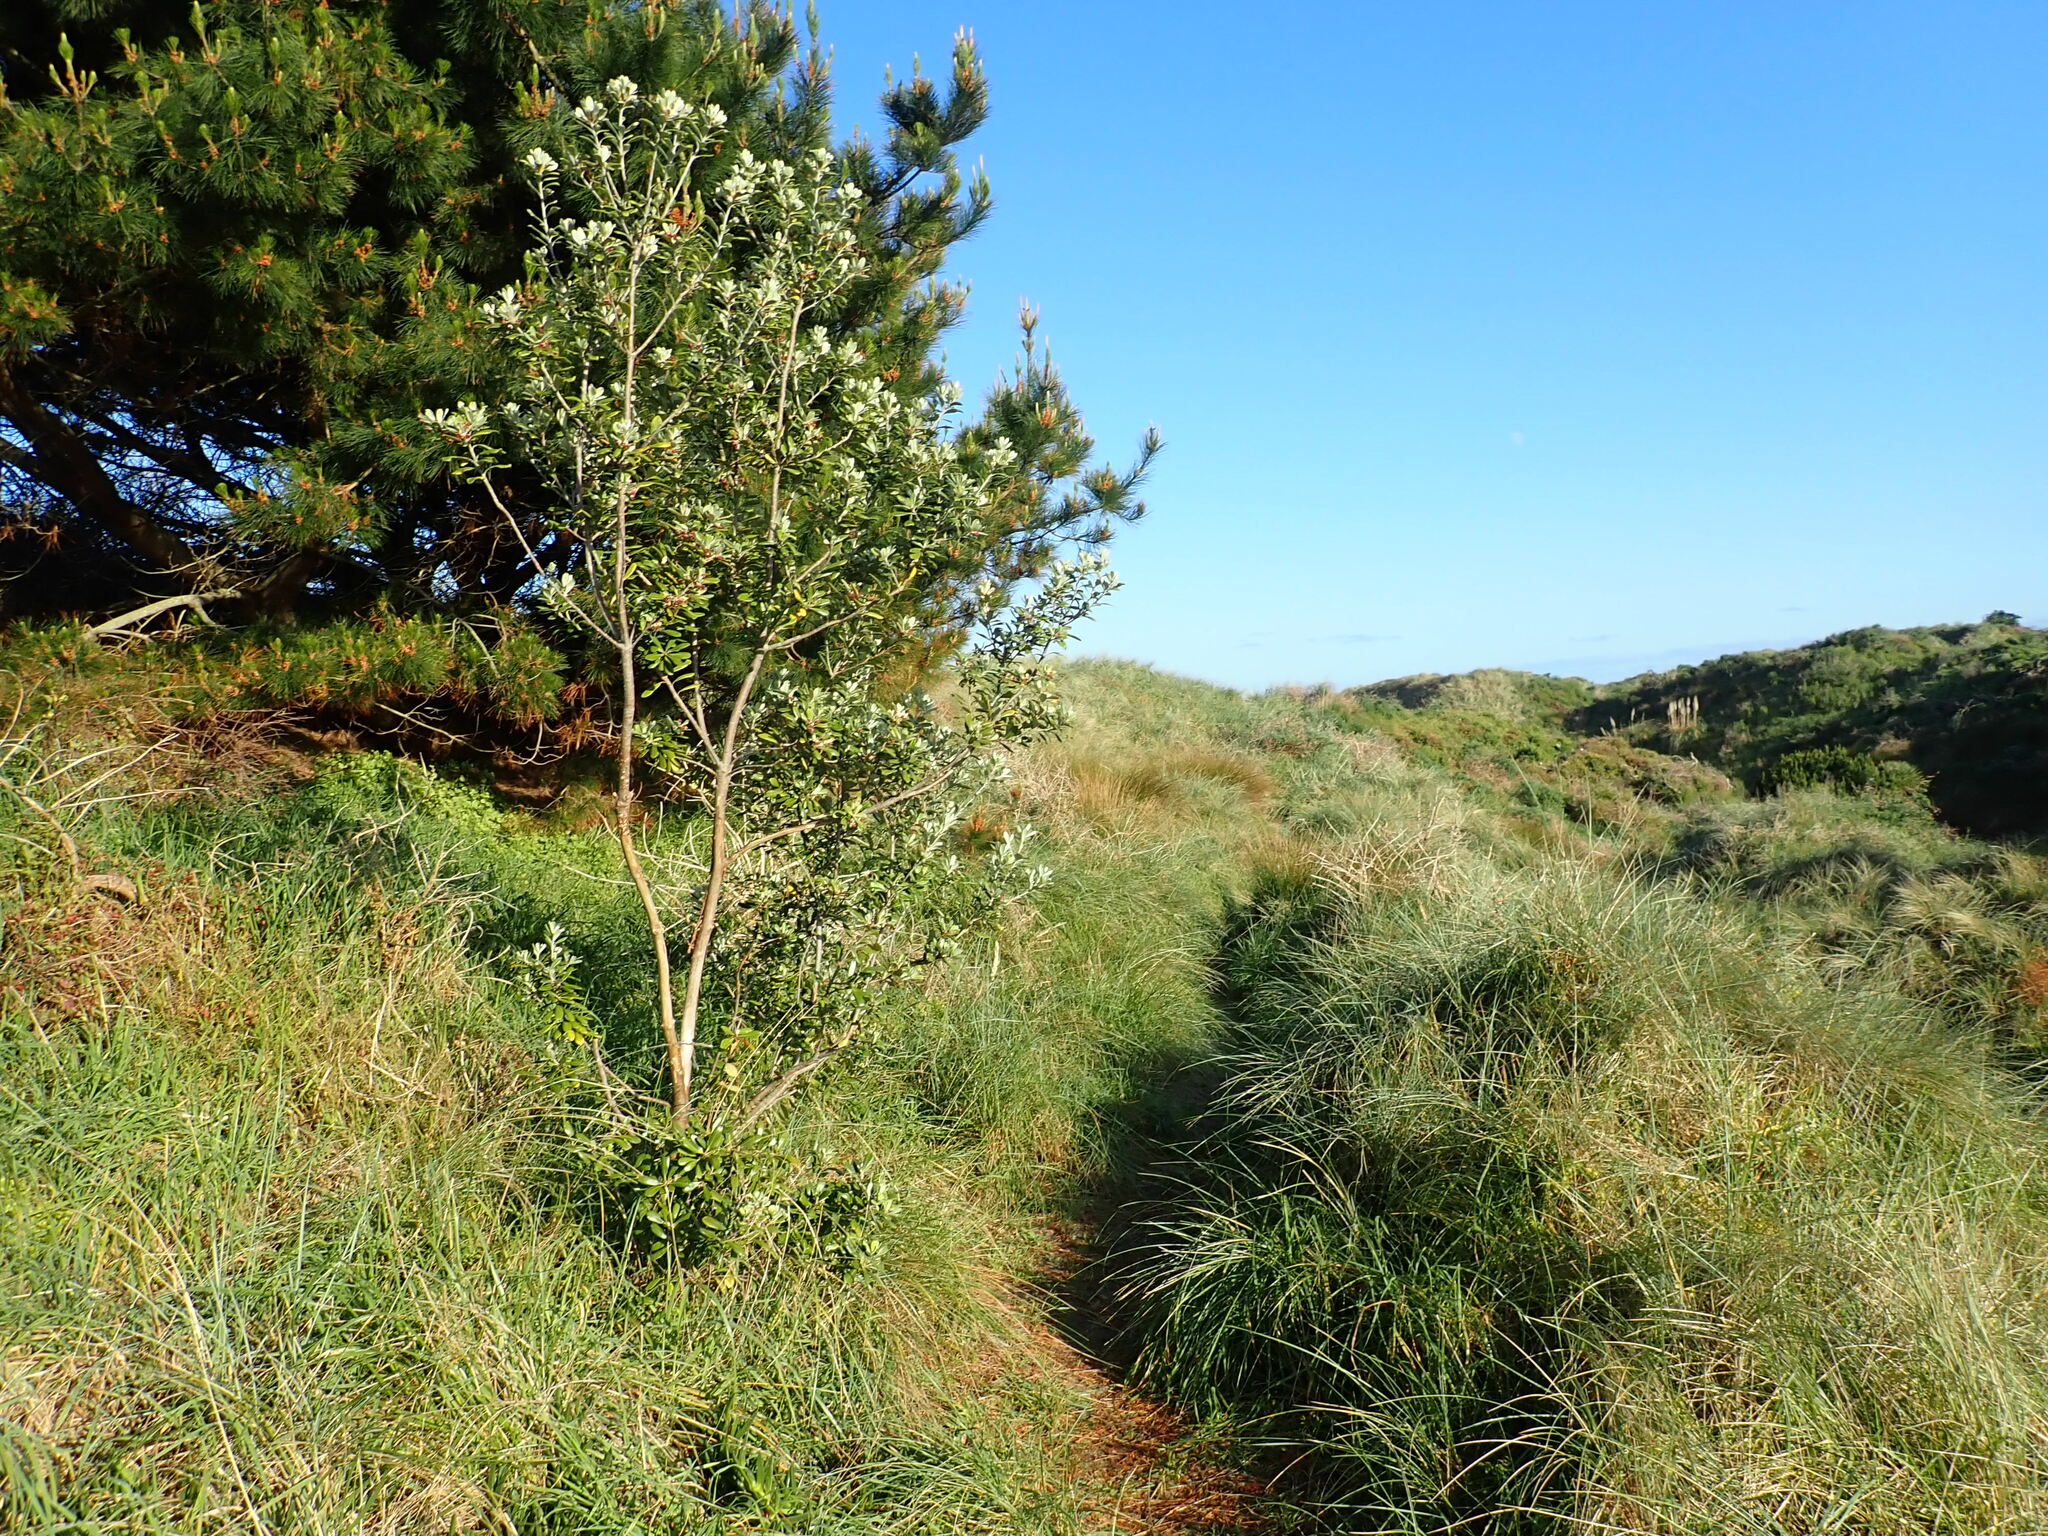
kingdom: Plantae
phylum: Tracheophyta
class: Magnoliopsida
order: Apiales
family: Pittosporaceae
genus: Pittosporum
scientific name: Pittosporum crassifolium
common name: Karo
